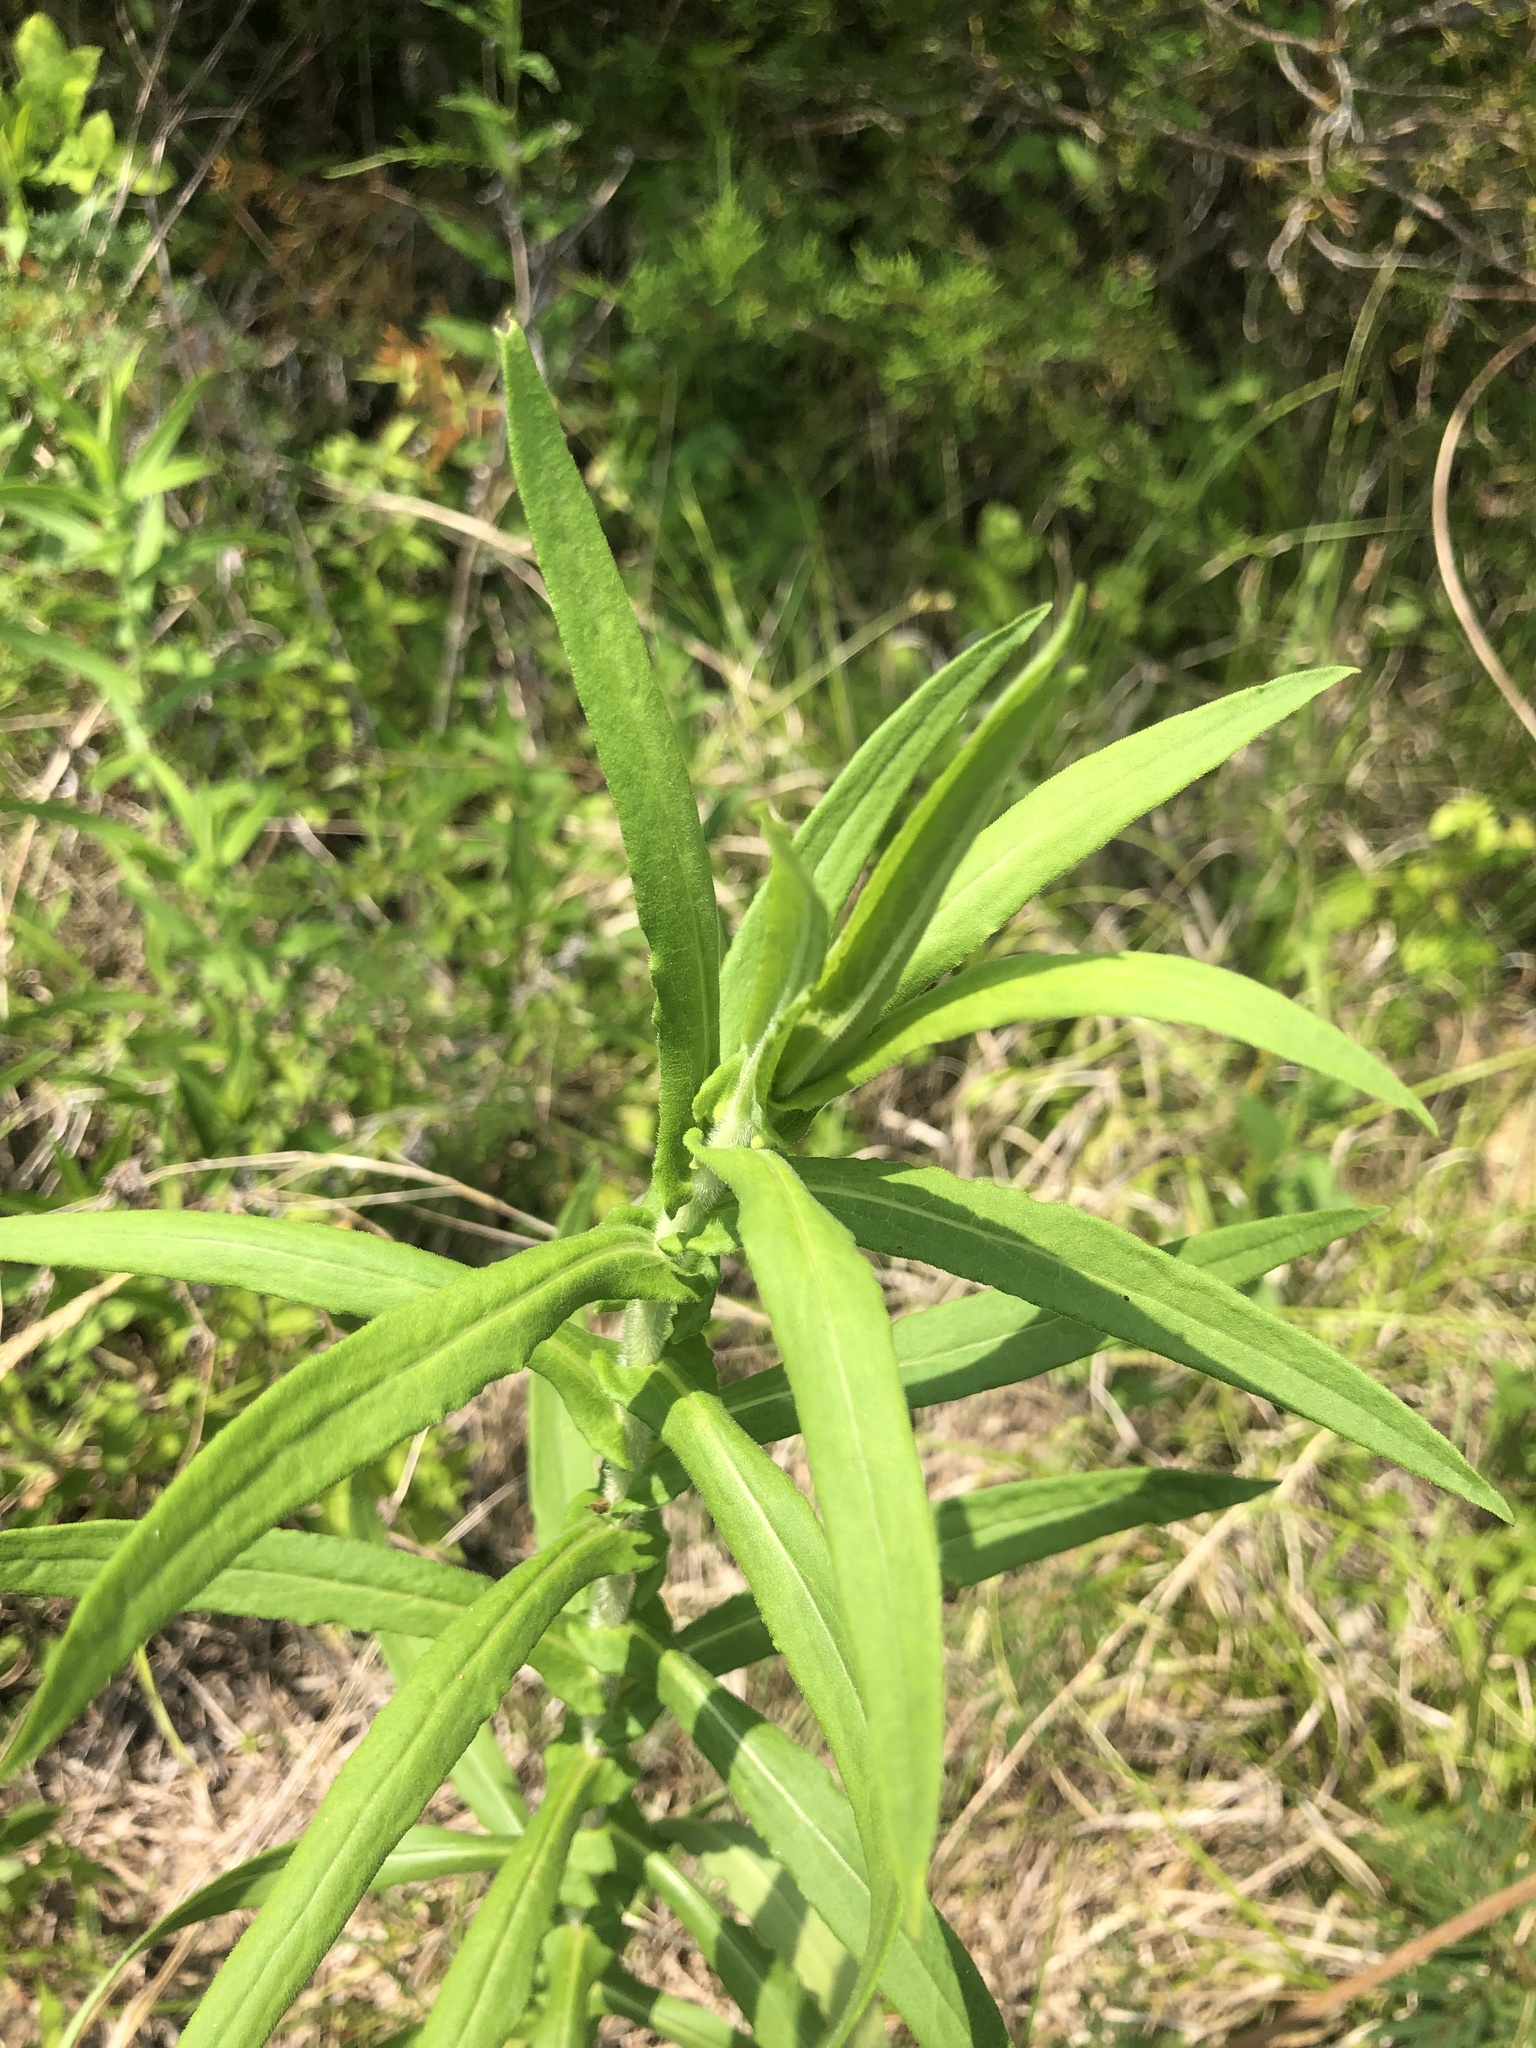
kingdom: Plantae
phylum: Tracheophyta
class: Magnoliopsida
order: Asterales
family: Asteraceae
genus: Symphyotrichum
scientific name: Symphyotrichum novae-angliae
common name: Michaelmas daisy
